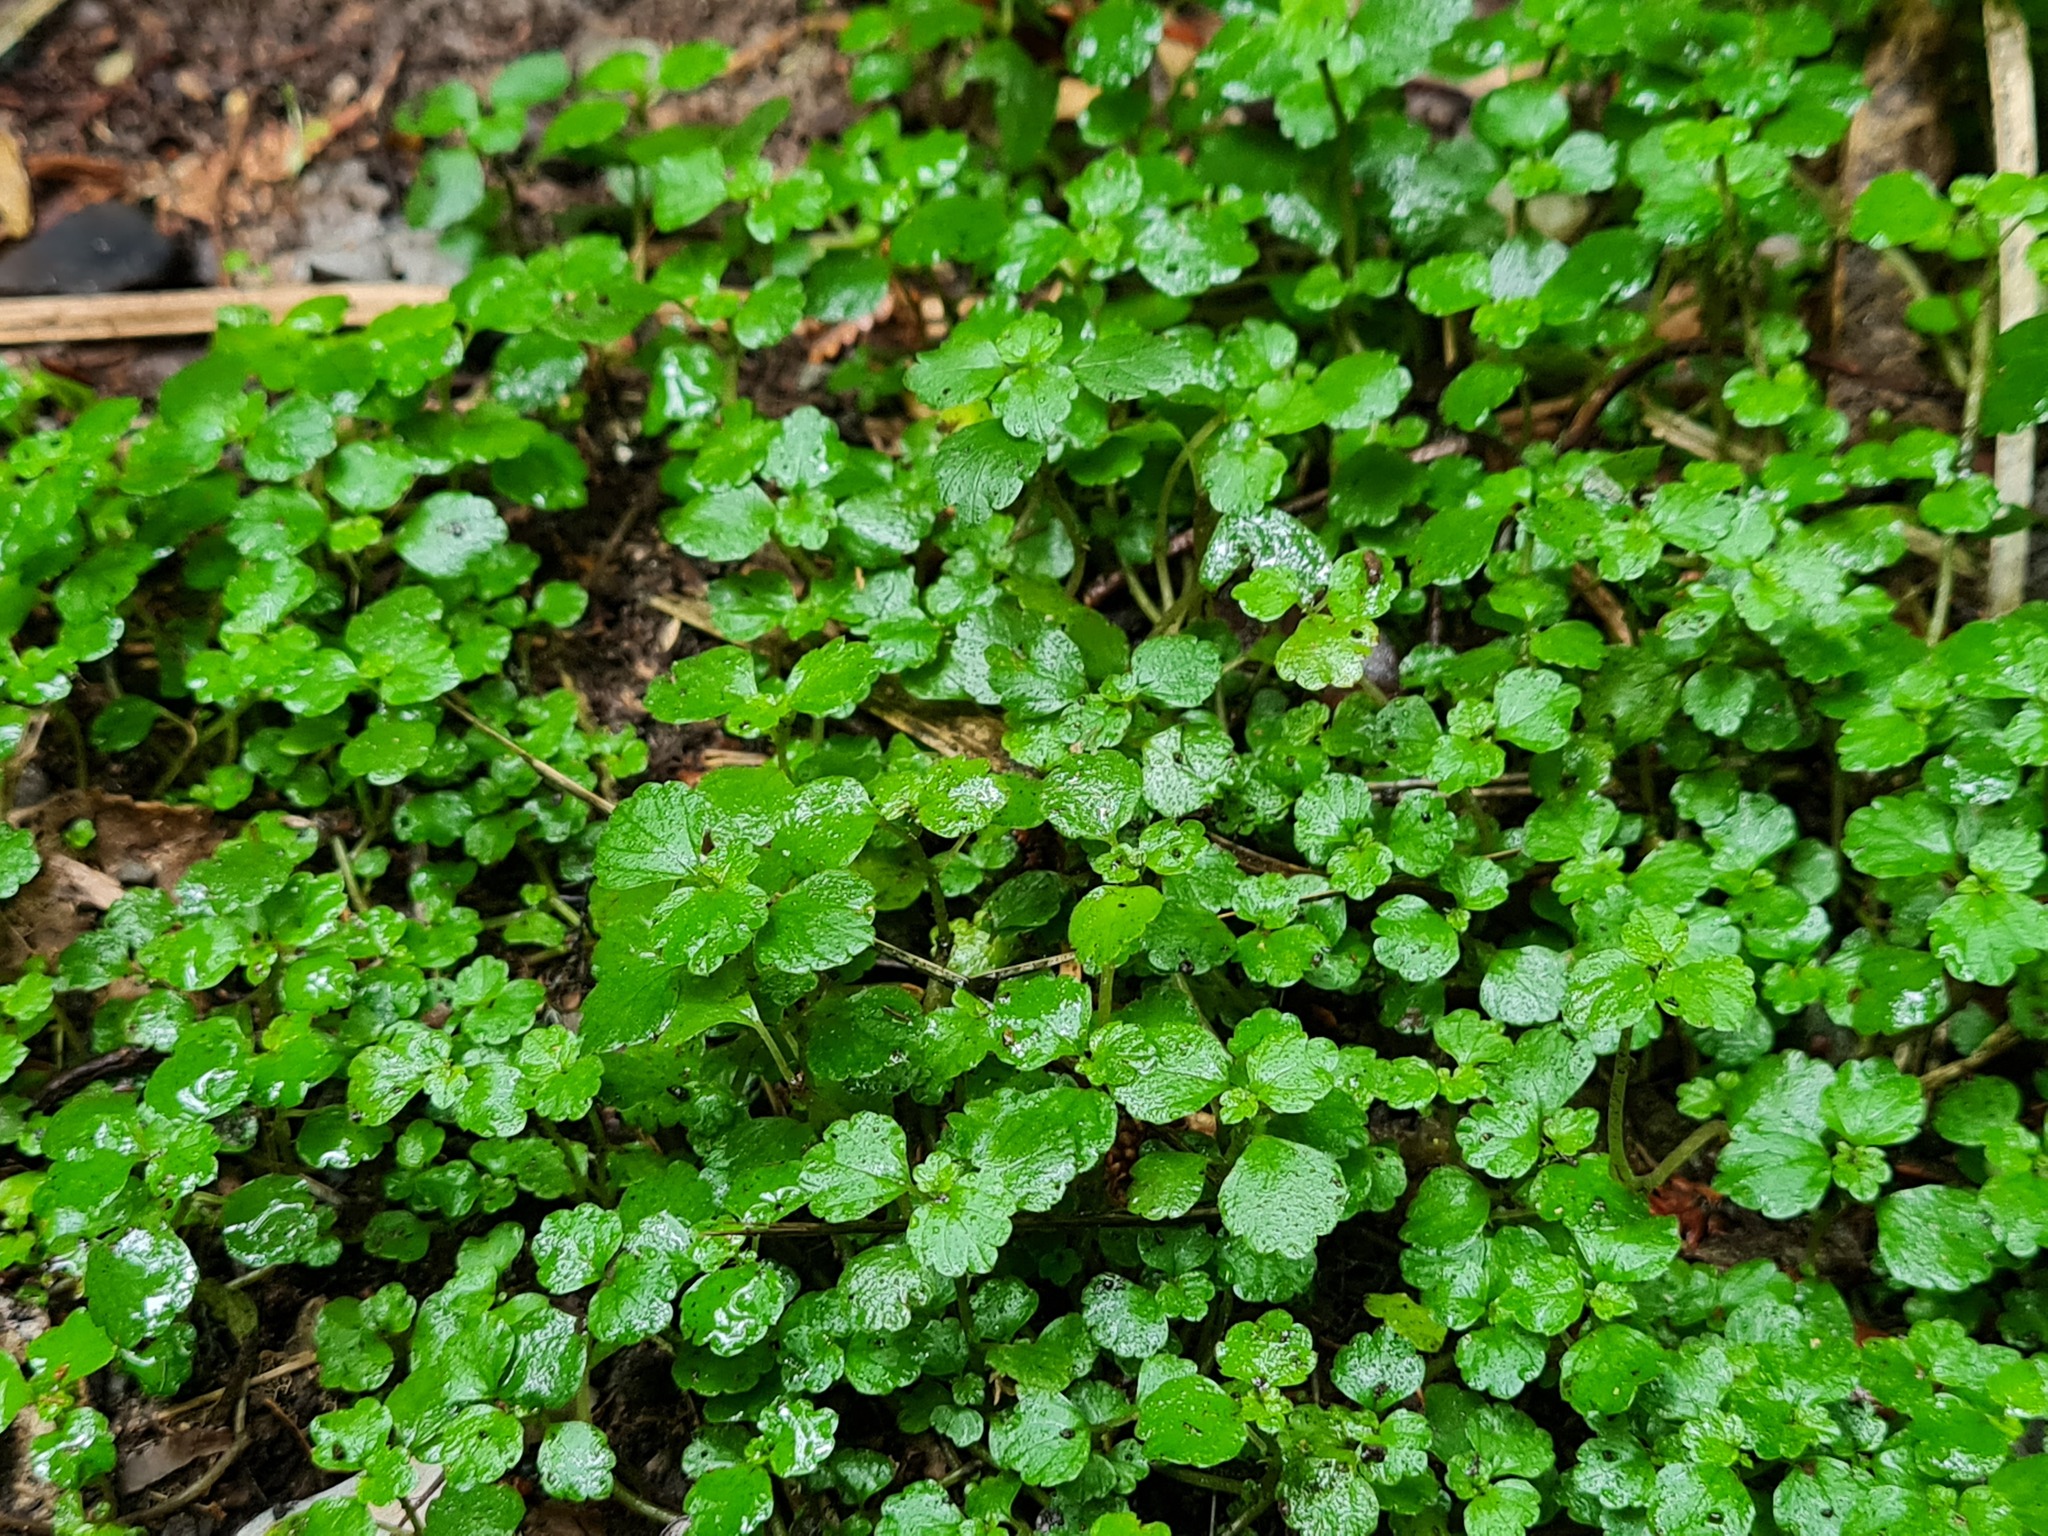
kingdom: Plantae
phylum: Tracheophyta
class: Magnoliopsida
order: Rosales
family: Urticaceae
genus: Australina
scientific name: Australina pusilla
